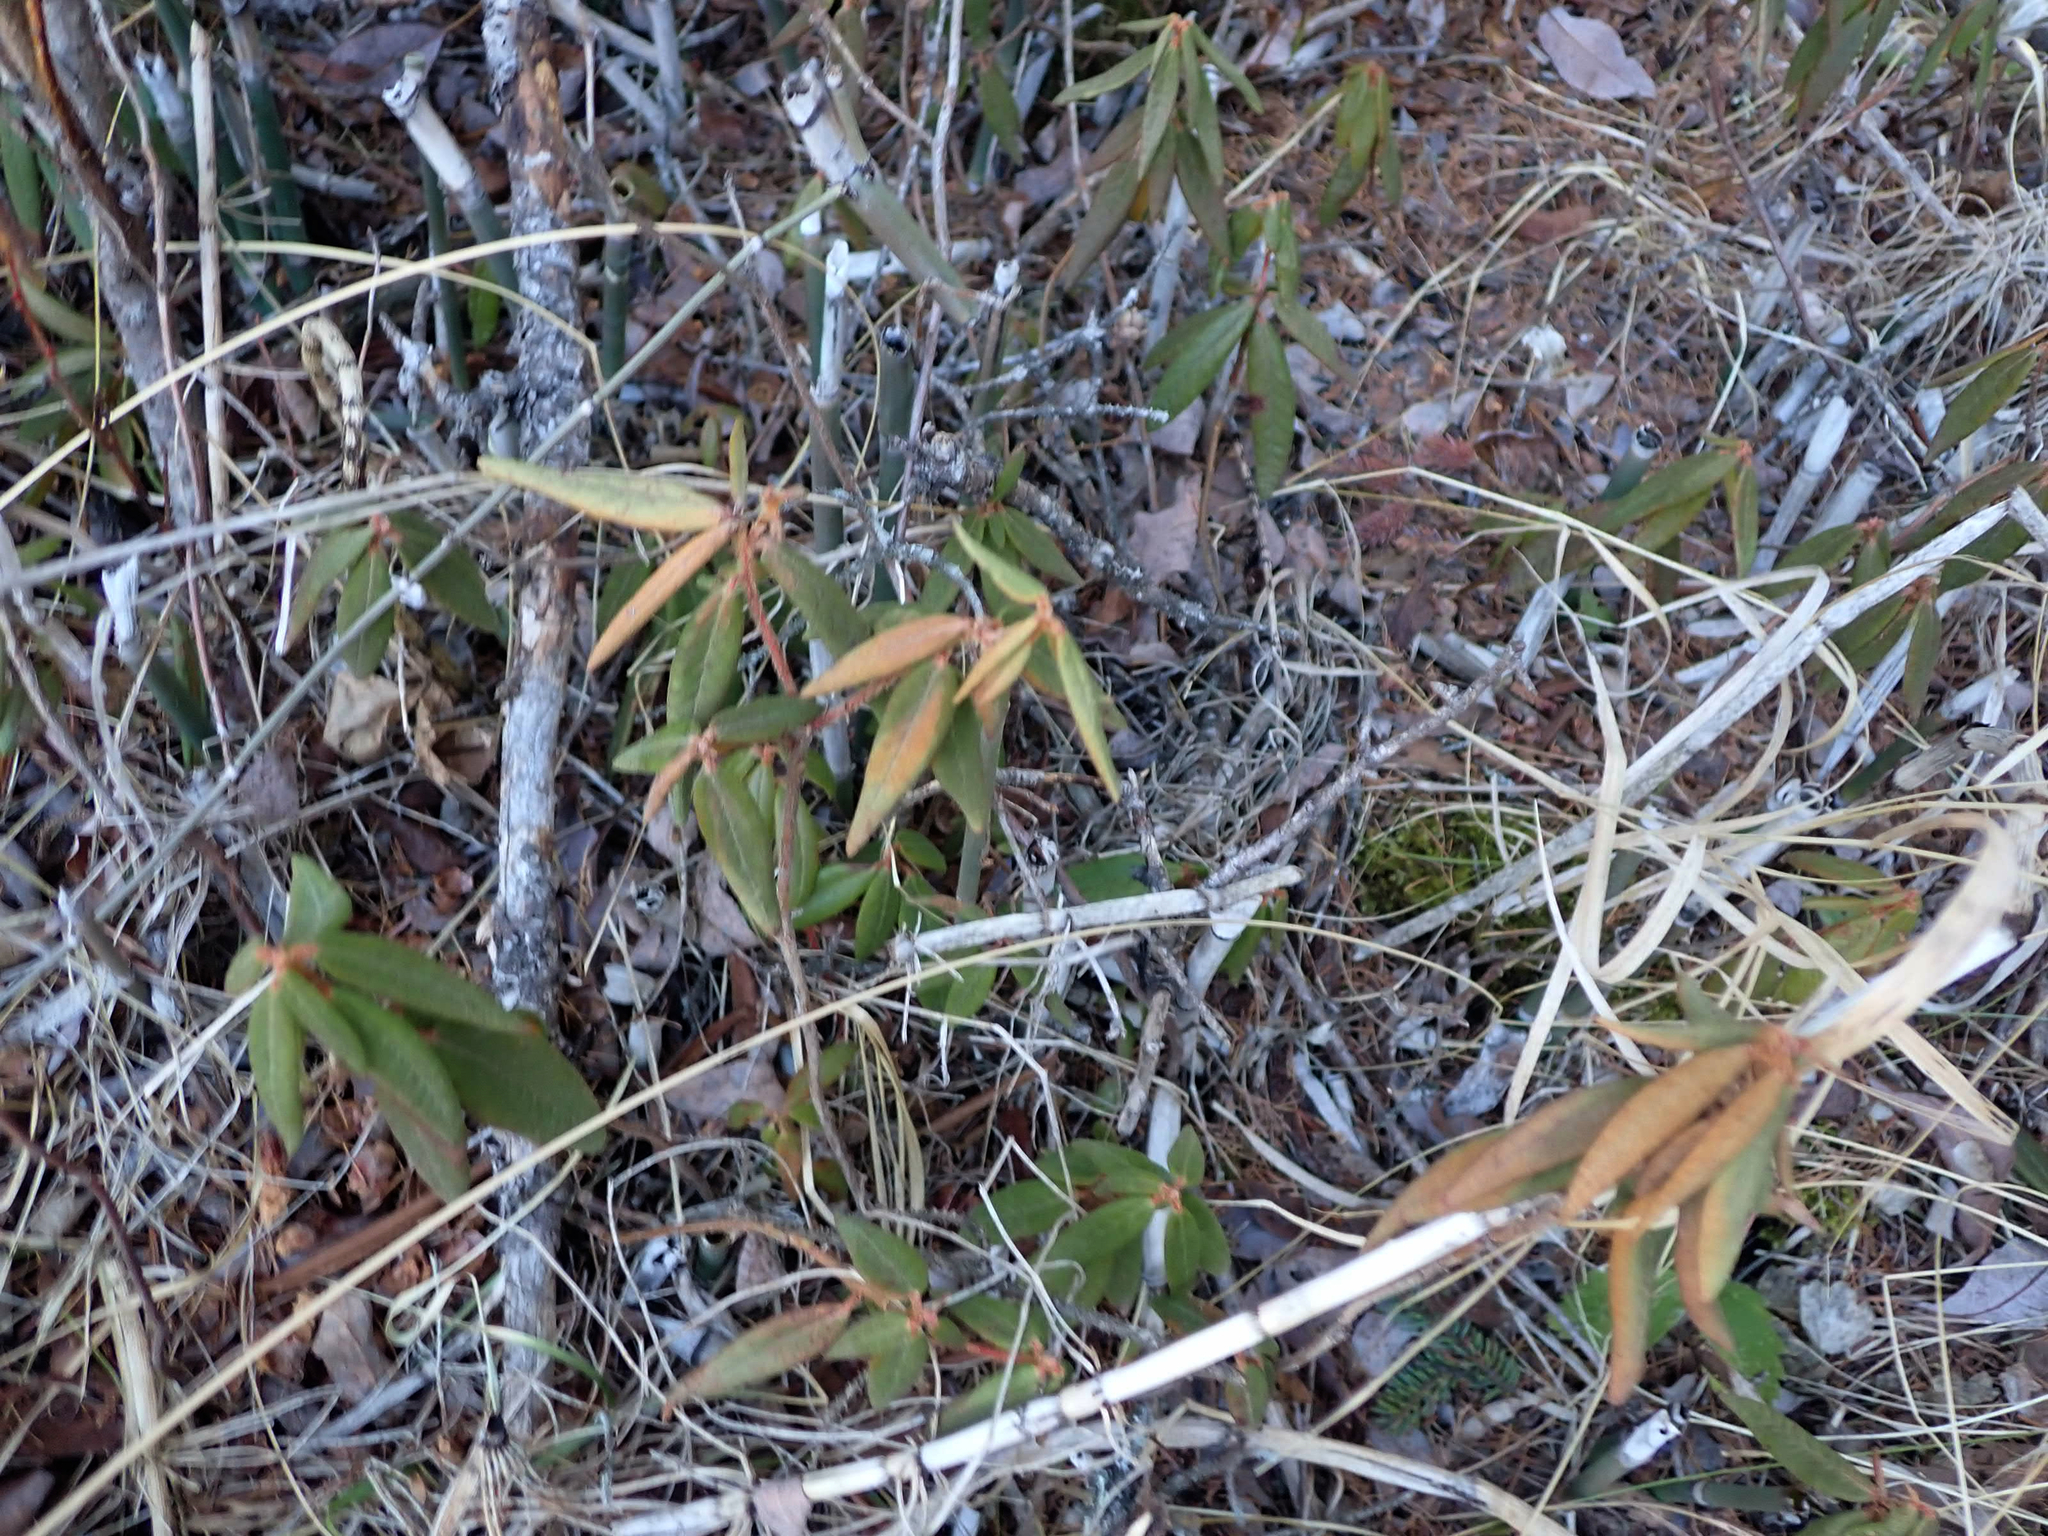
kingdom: Plantae
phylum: Tracheophyta
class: Magnoliopsida
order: Ericales
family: Ericaceae
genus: Rhododendron
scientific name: Rhododendron groenlandicum
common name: Bog labrador tea
